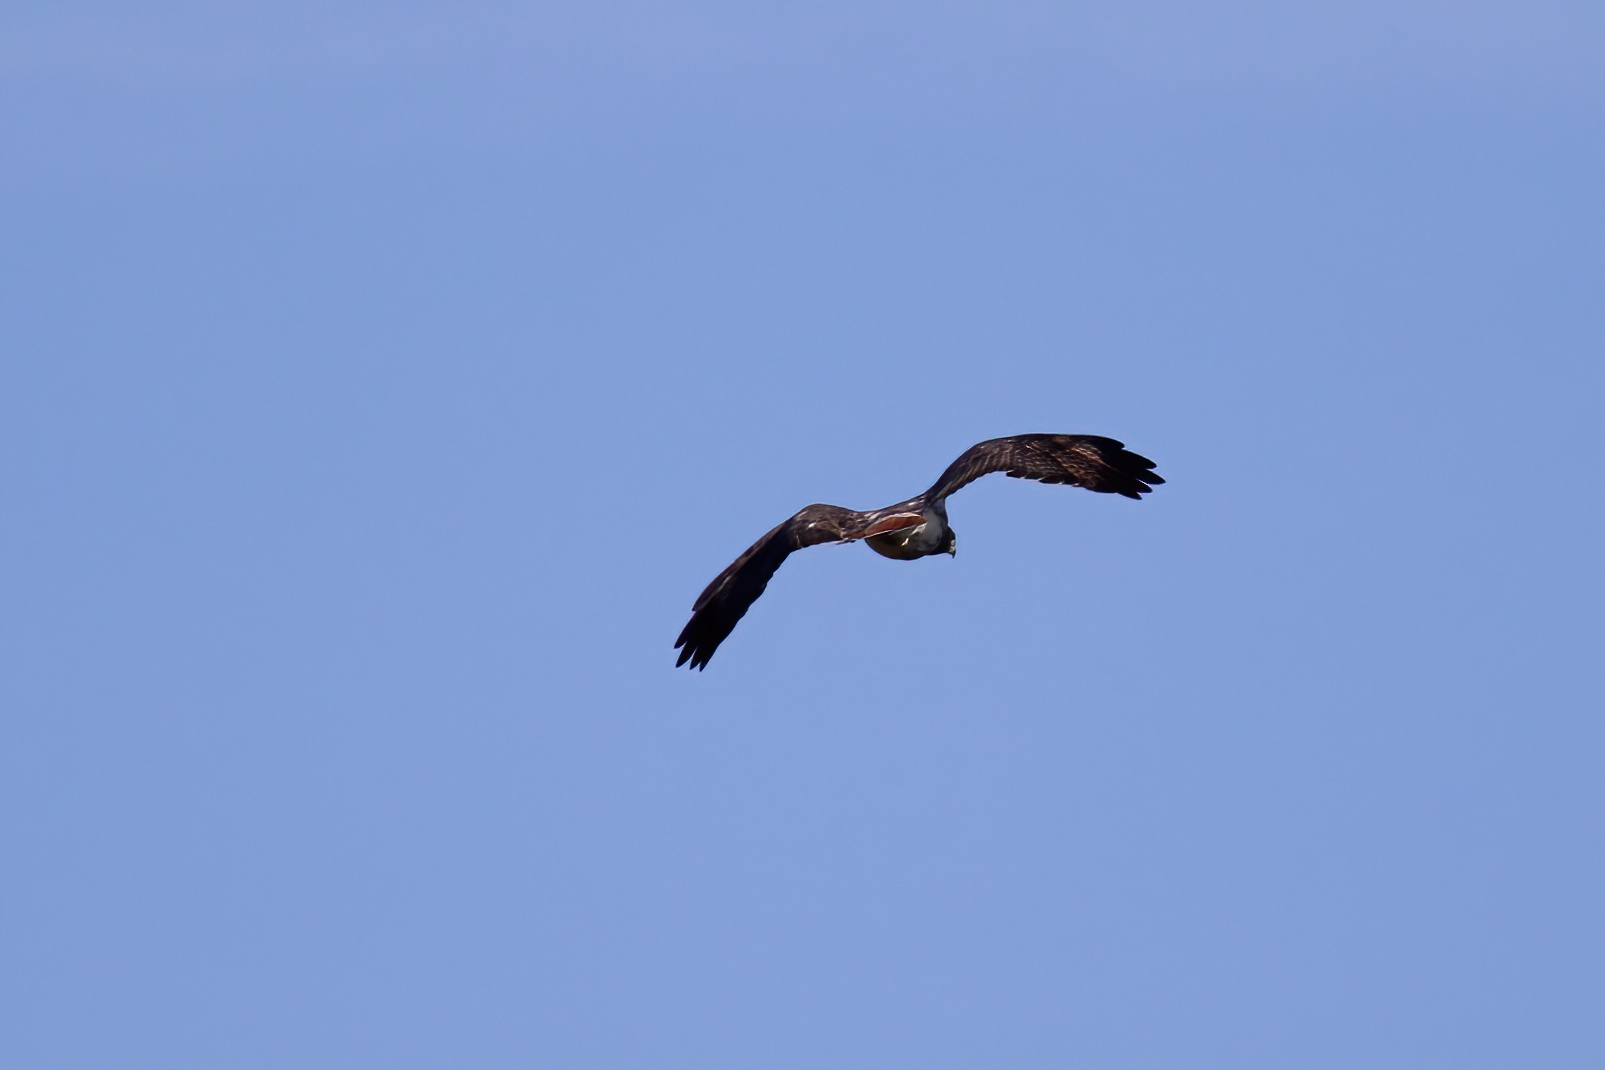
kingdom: Animalia
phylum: Chordata
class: Aves
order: Accipitriformes
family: Accipitridae
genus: Buteo
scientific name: Buteo jamaicensis
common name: Red-tailed hawk
